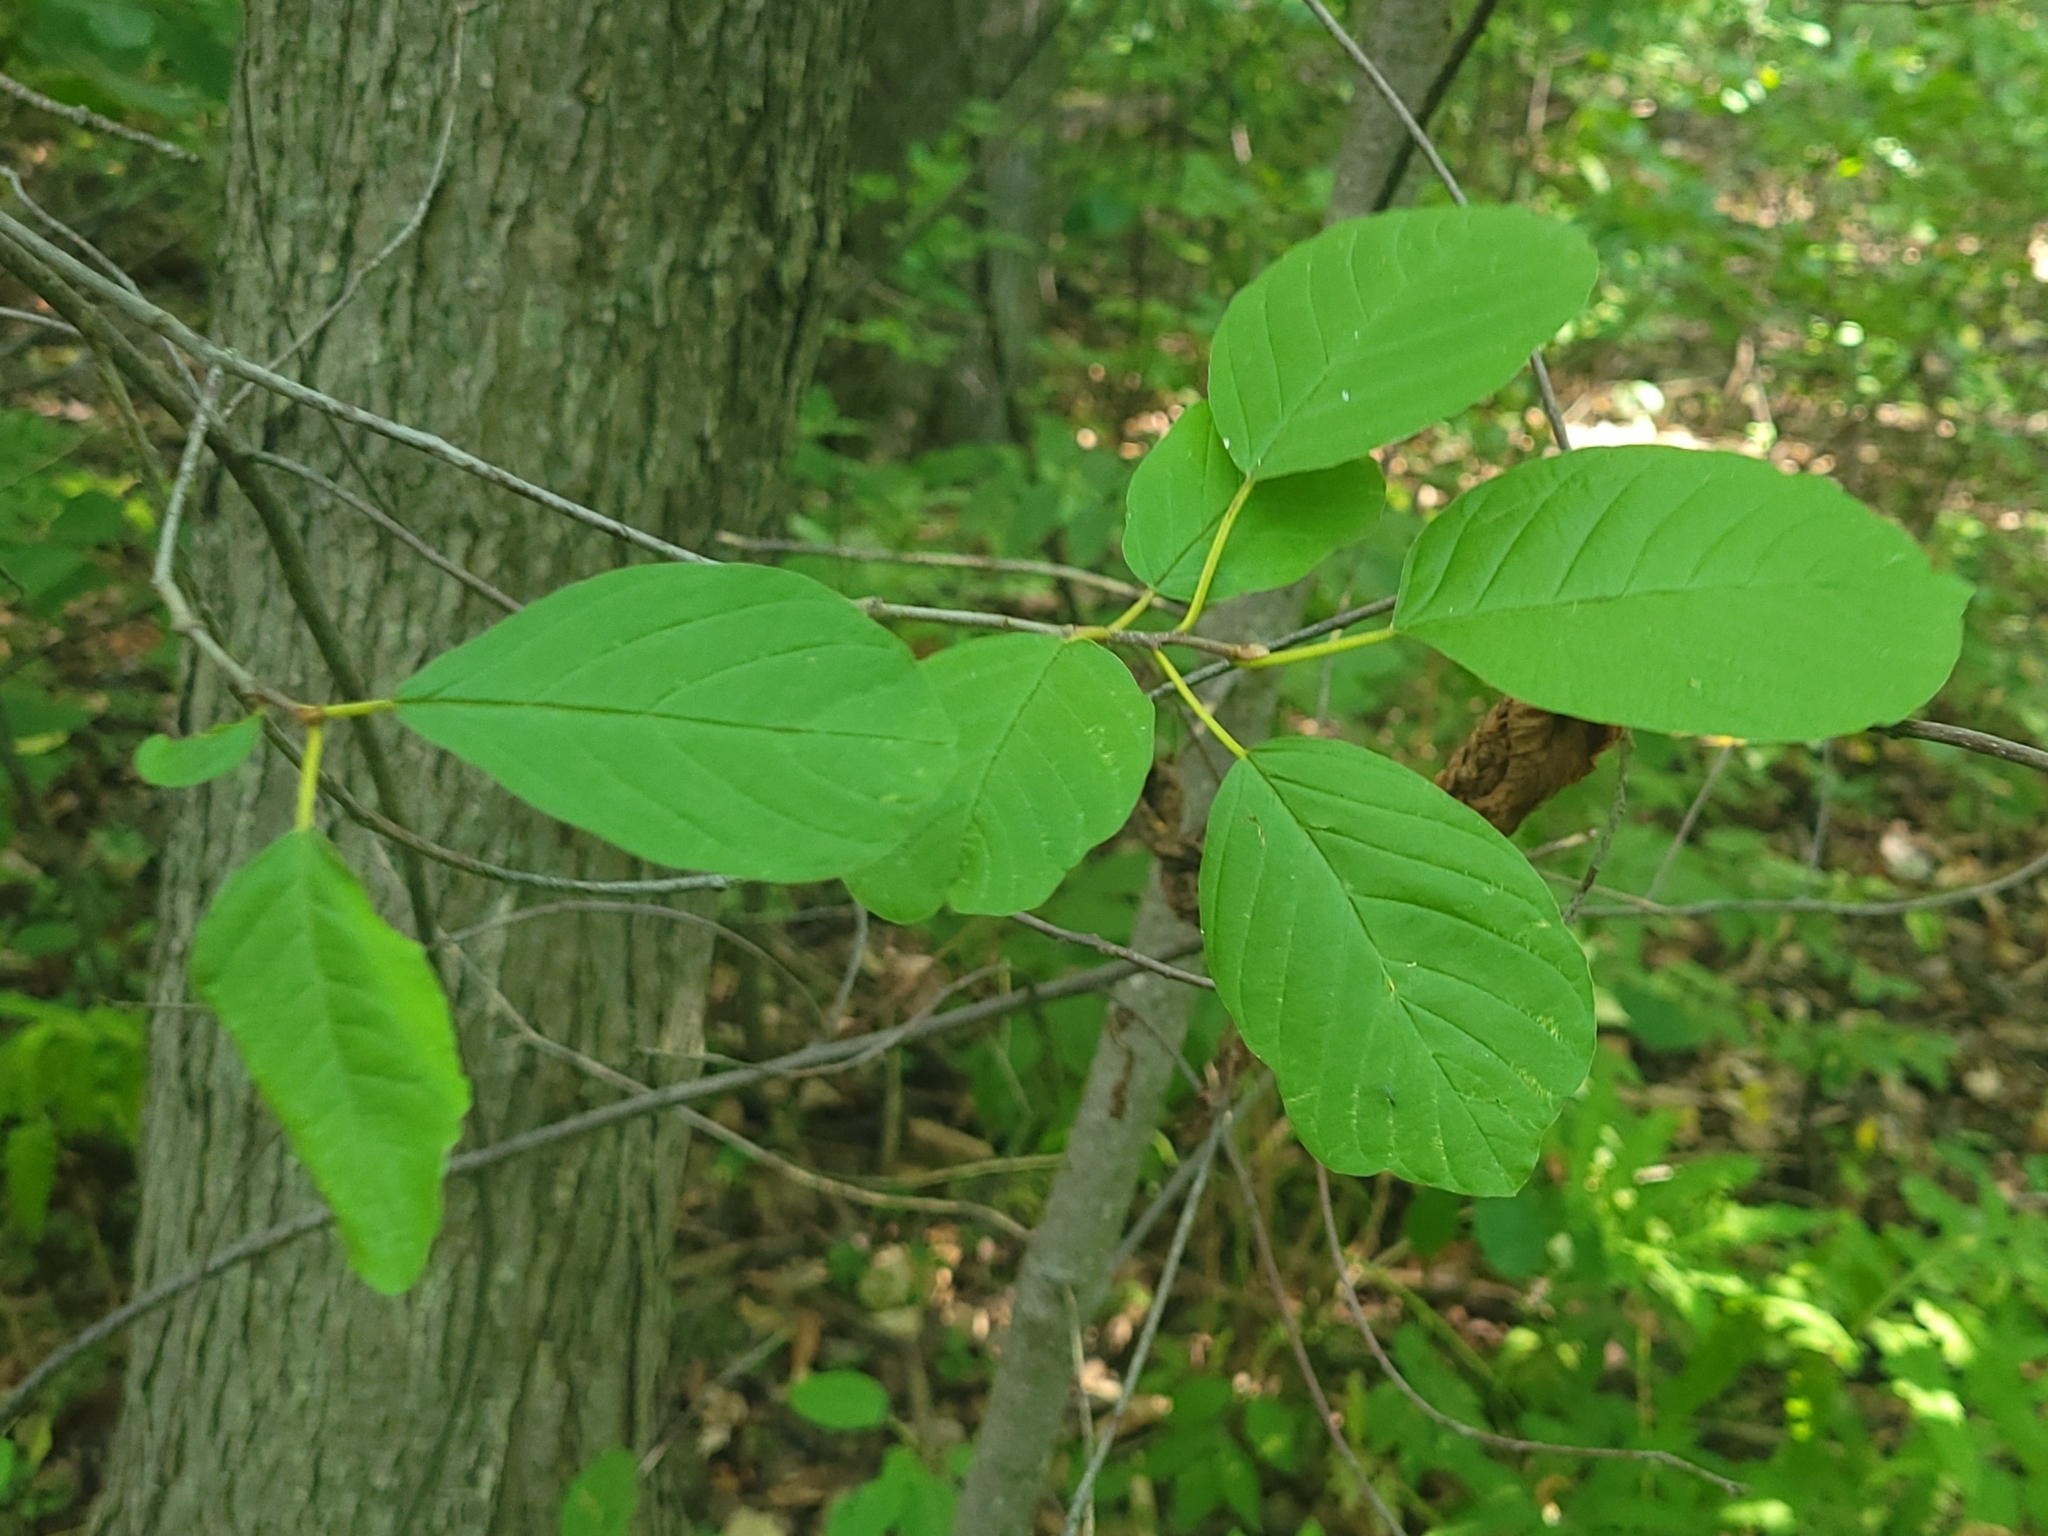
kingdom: Plantae
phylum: Tracheophyta
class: Magnoliopsida
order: Rosales
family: Rhamnaceae
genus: Frangula
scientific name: Frangula alnus
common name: Alder buckthorn
